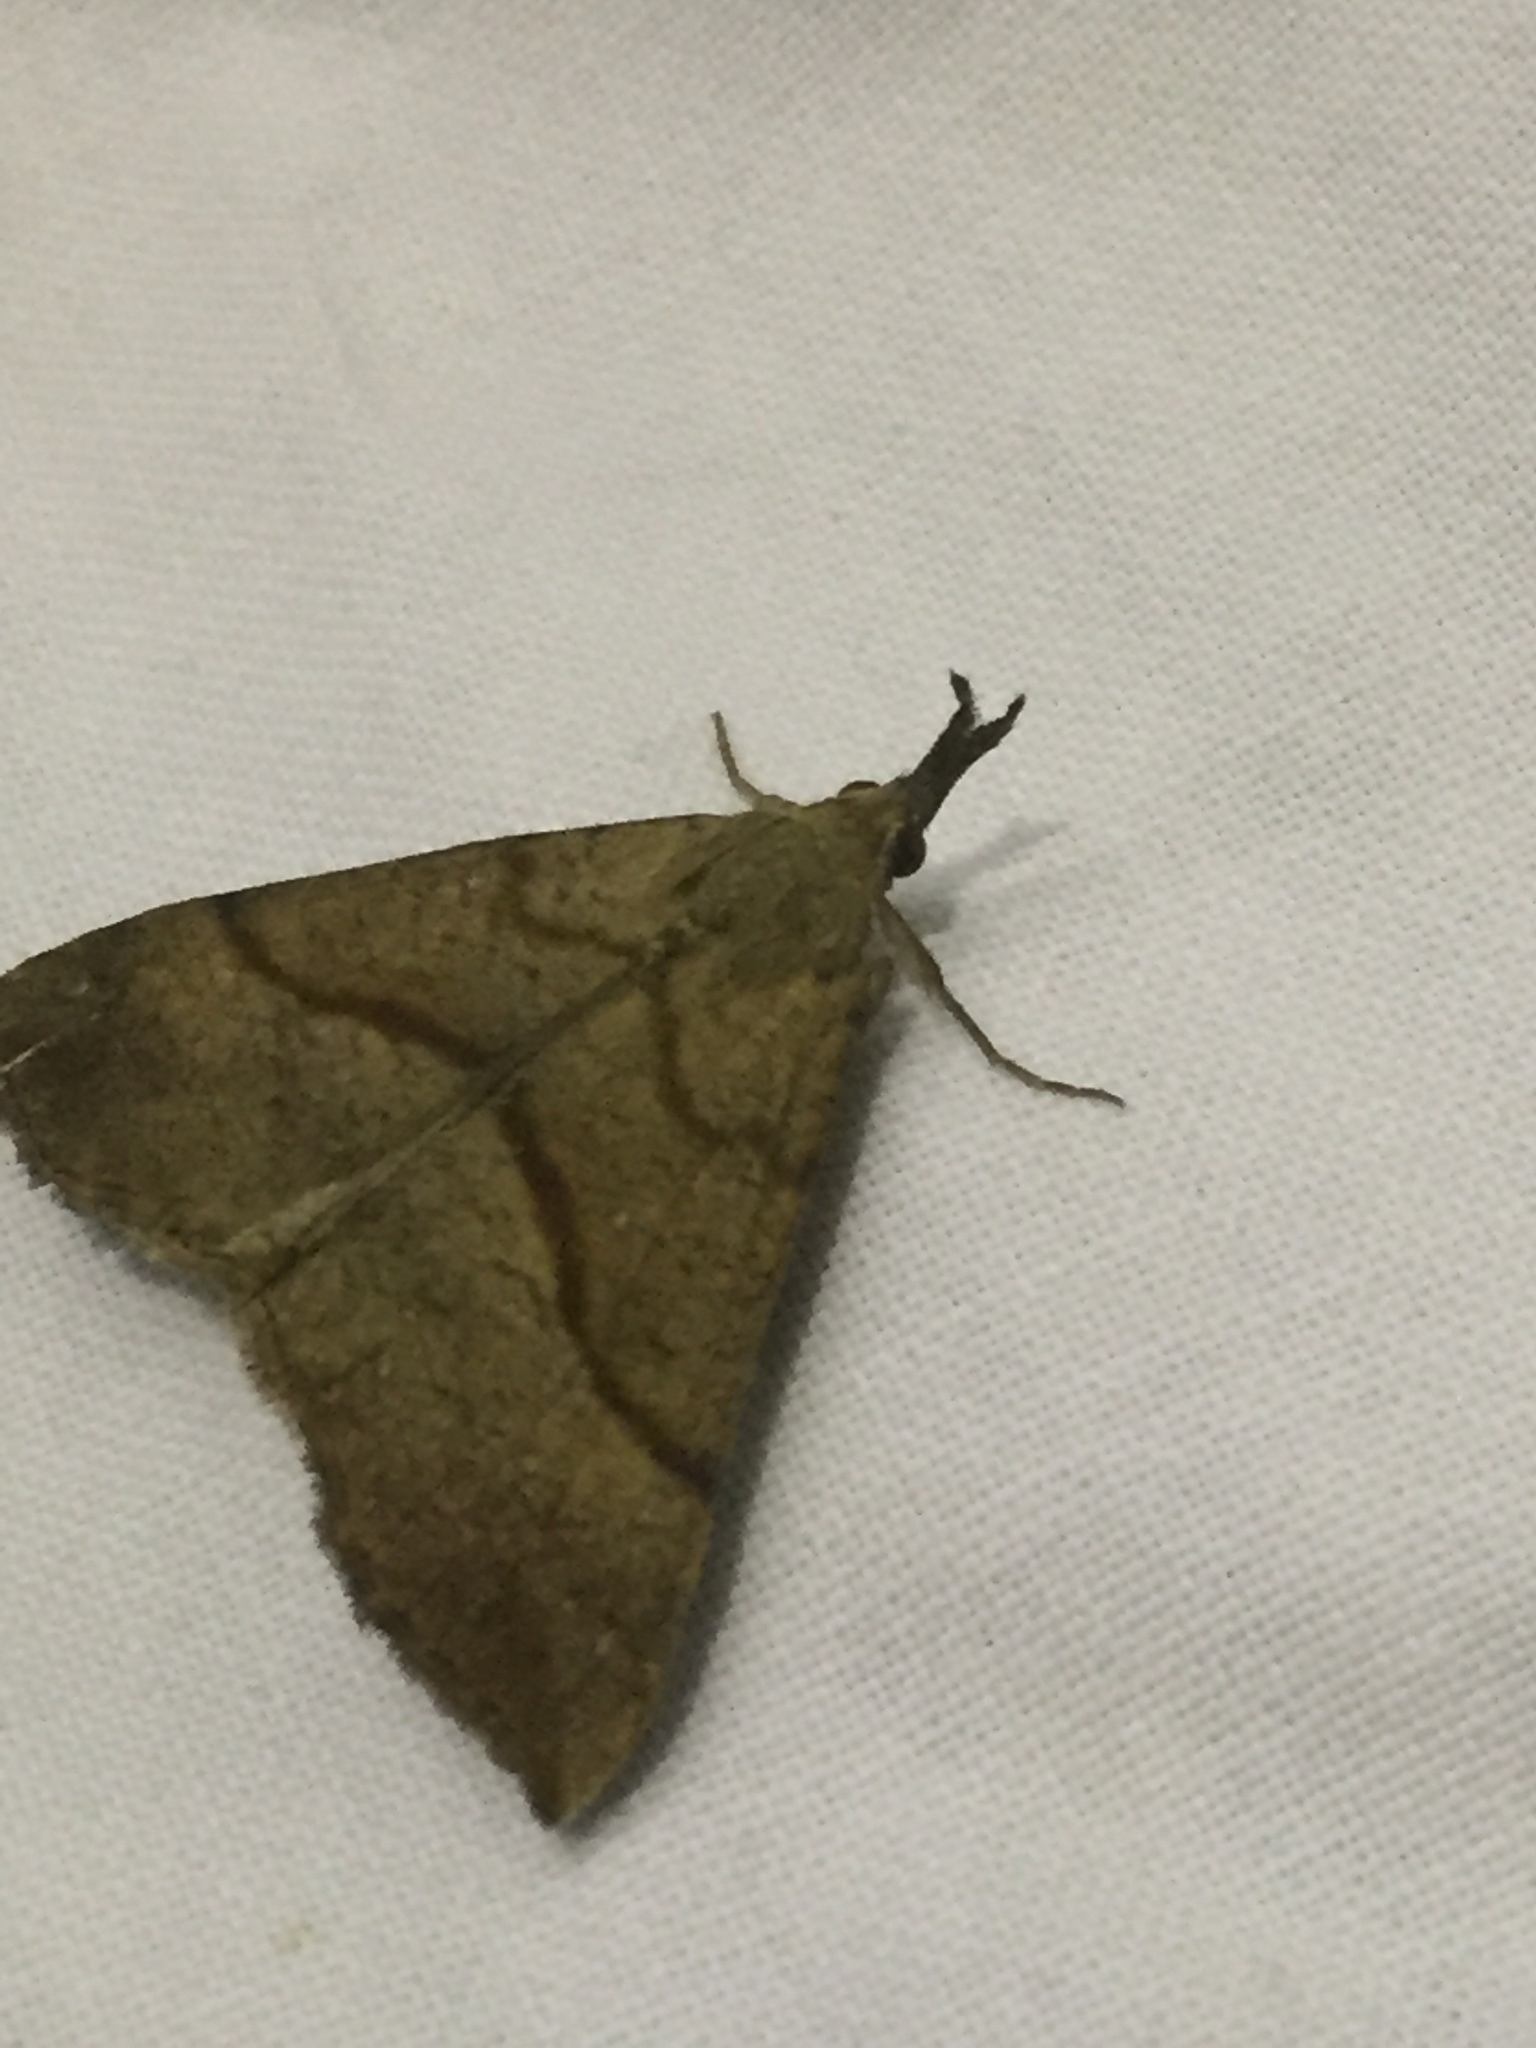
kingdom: Animalia
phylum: Arthropoda
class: Insecta
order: Lepidoptera
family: Erebidae
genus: Hypena
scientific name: Hypena proboscidalis
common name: Snout
